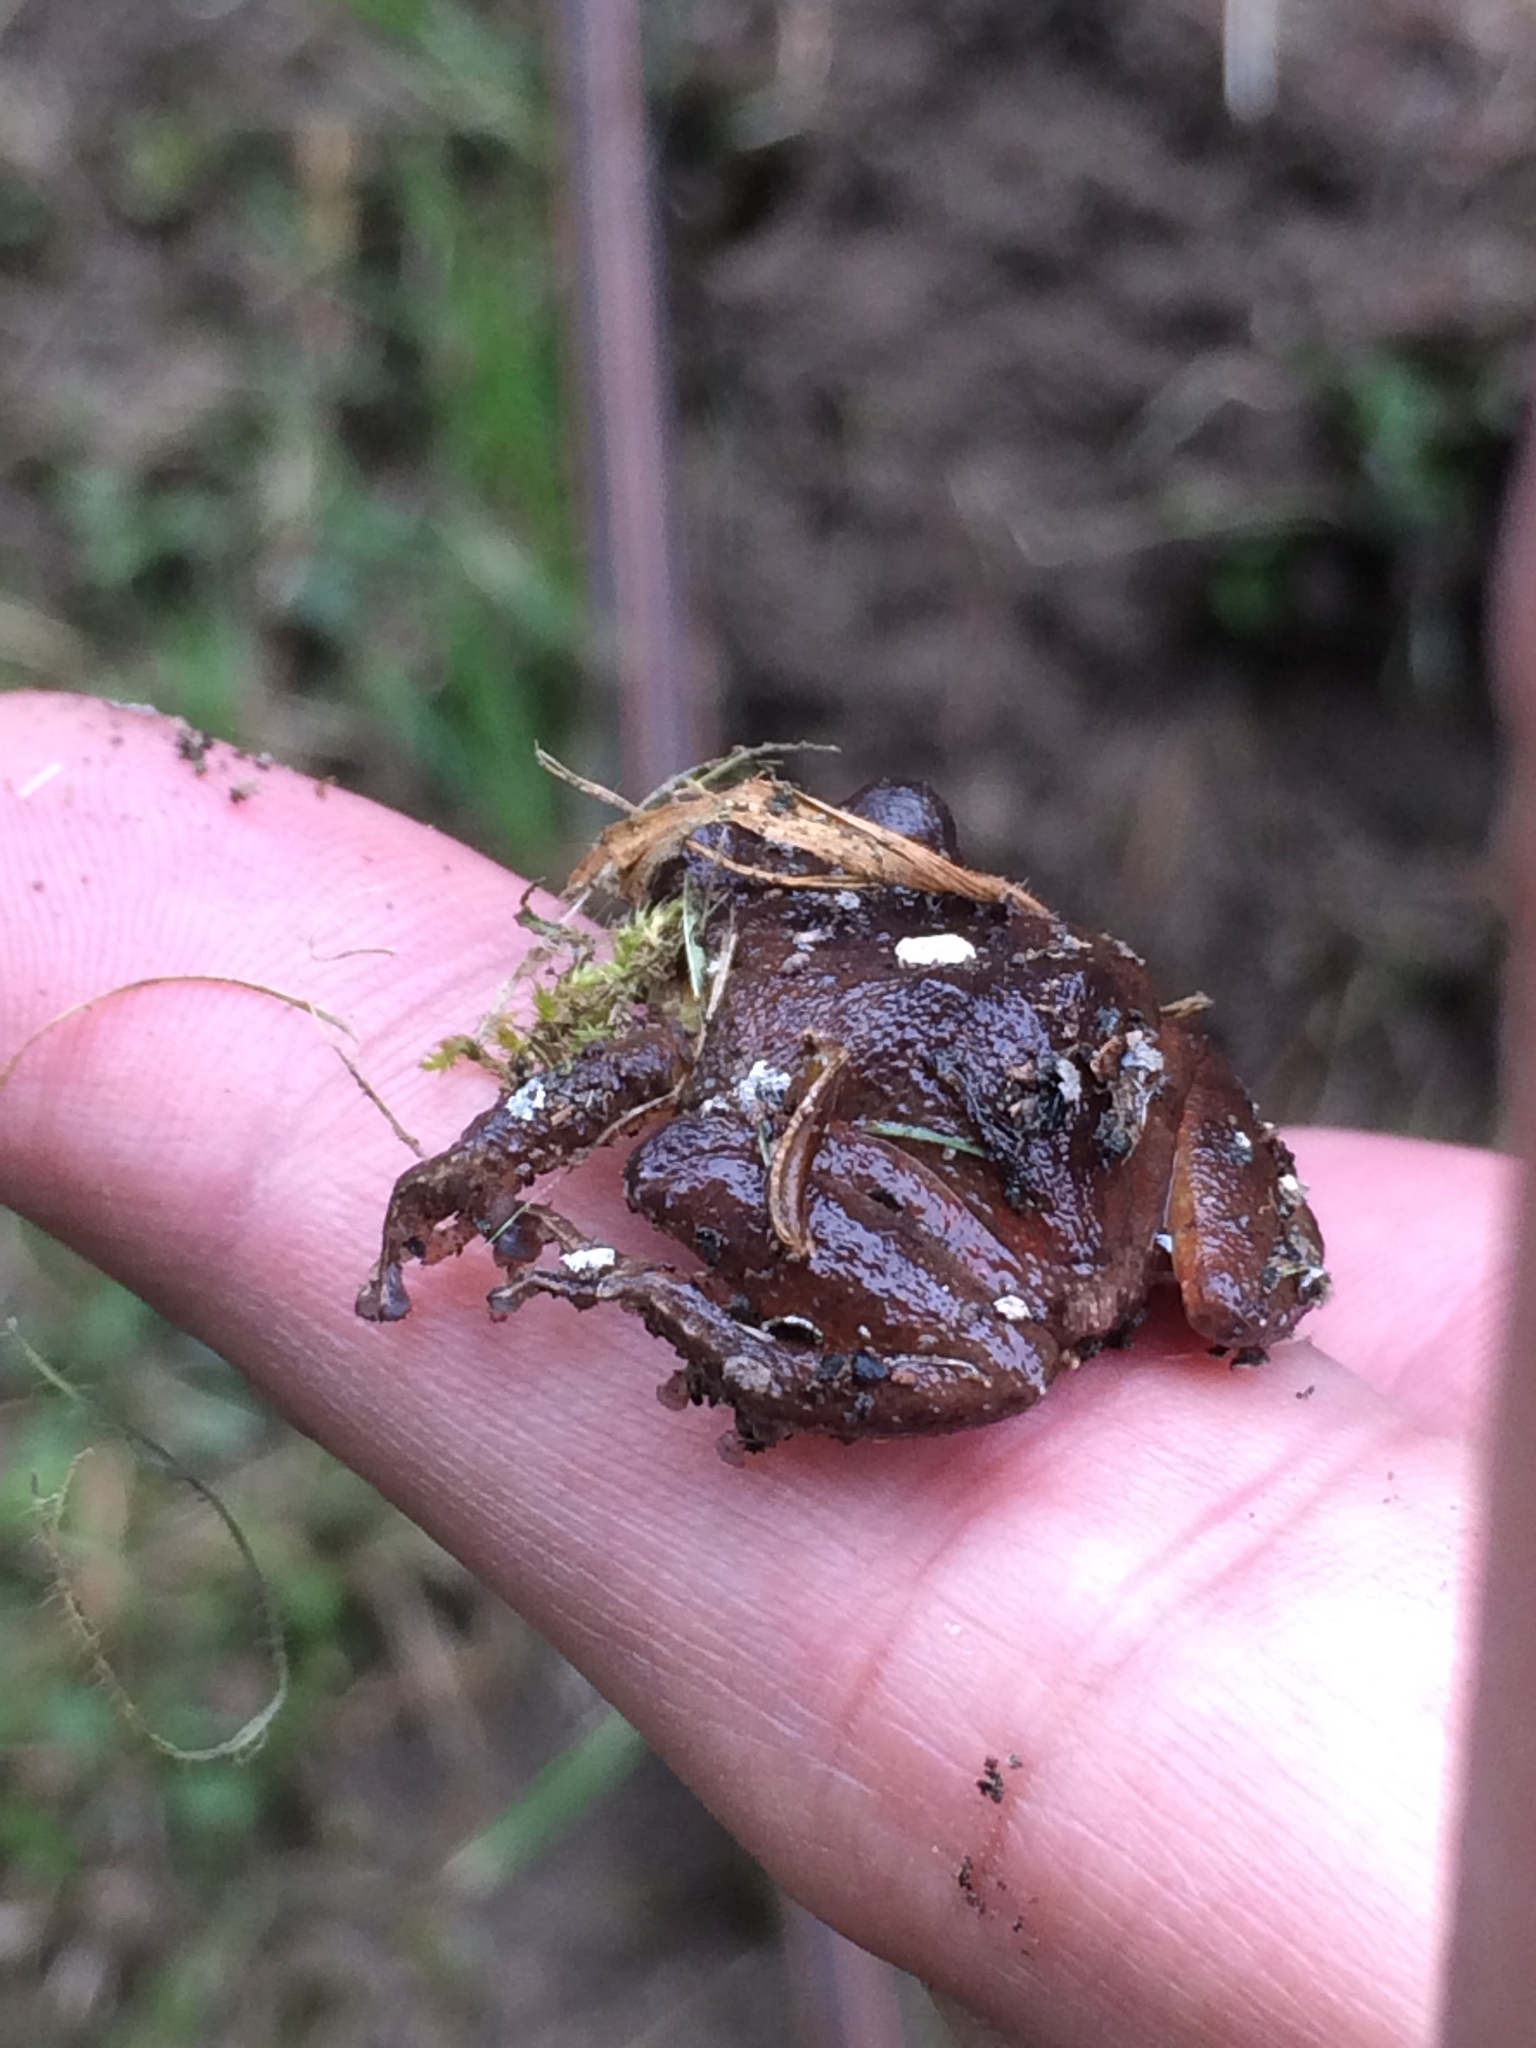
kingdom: Animalia
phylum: Chordata
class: Amphibia
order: Anura
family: Craugastoridae
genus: Pristimantis
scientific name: Pristimantis bogotensis
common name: Bogota robber frog
